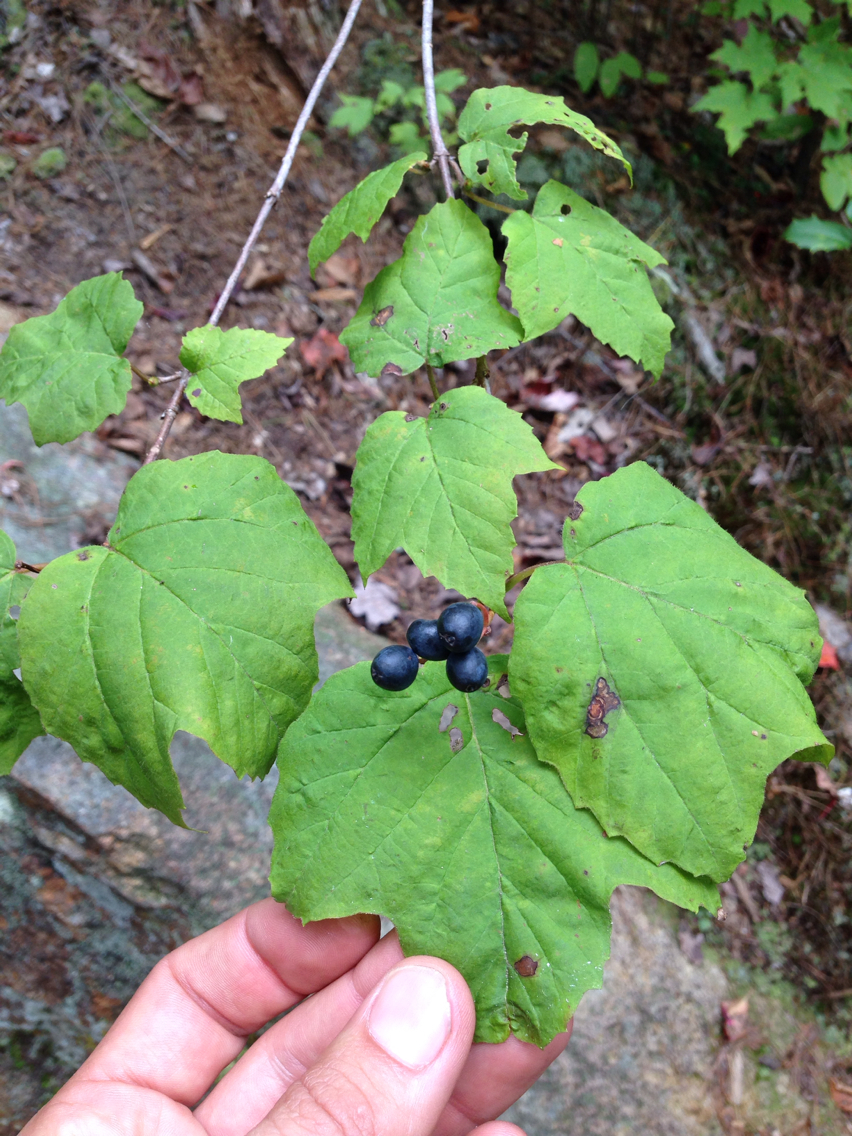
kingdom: Plantae
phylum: Tracheophyta
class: Magnoliopsida
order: Dipsacales
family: Viburnaceae
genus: Viburnum
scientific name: Viburnum acerifolium
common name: Dockmackie
